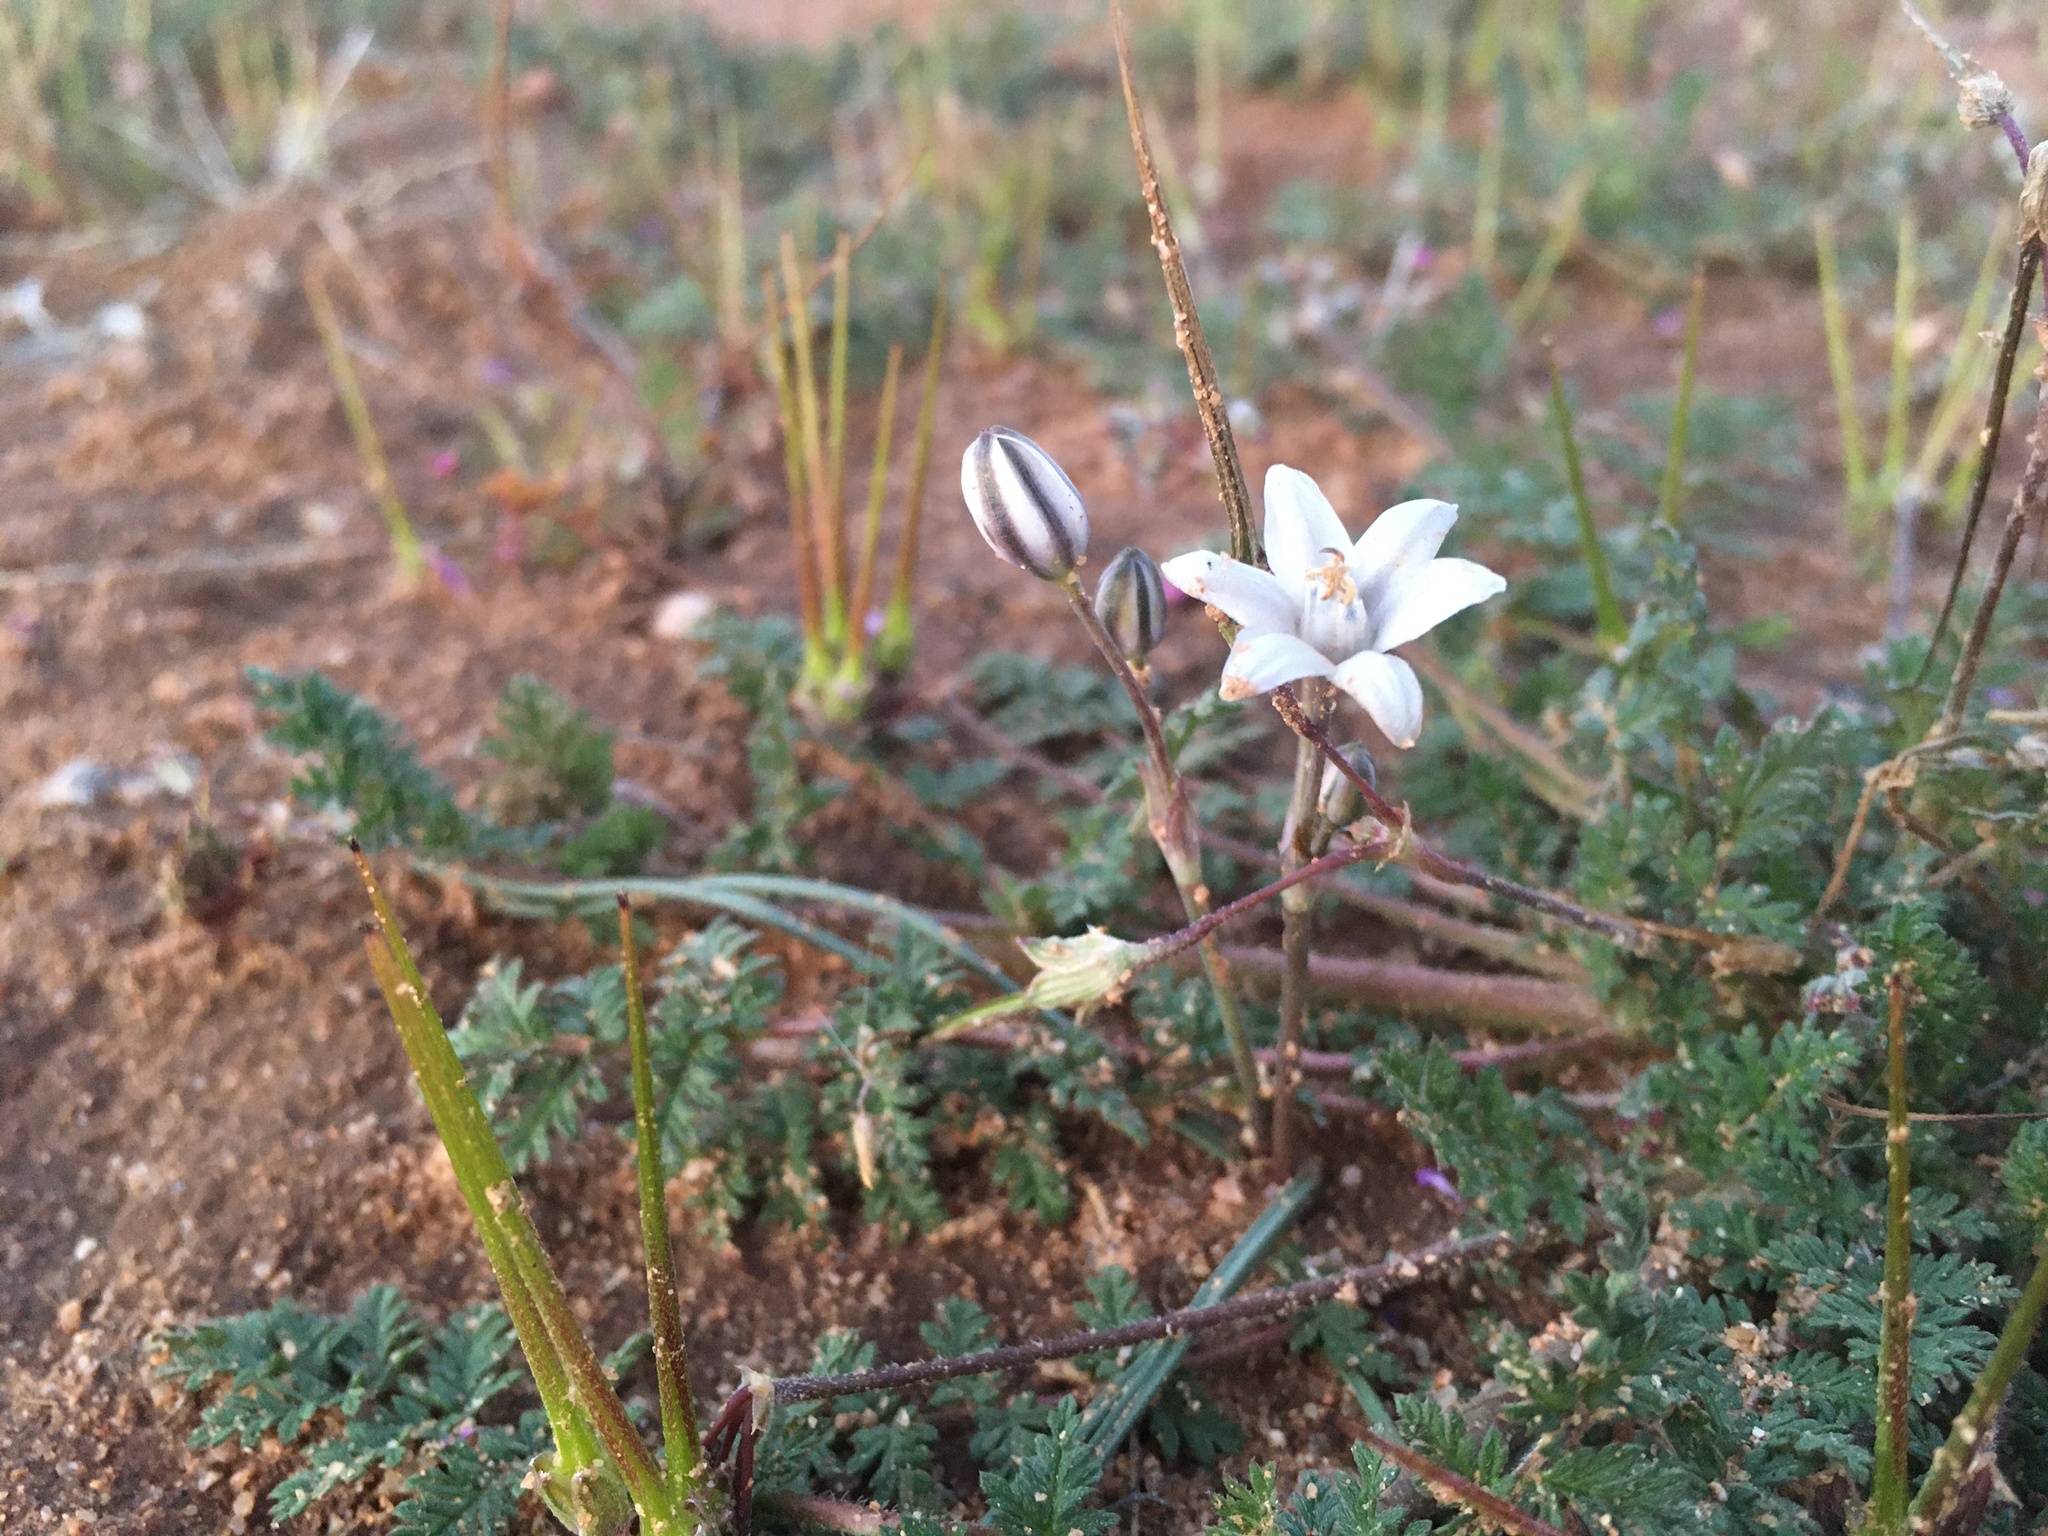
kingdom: Plantae
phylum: Tracheophyta
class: Liliopsida
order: Asparagales
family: Asparagaceae
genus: Muilla
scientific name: Muilla lordsburgana
